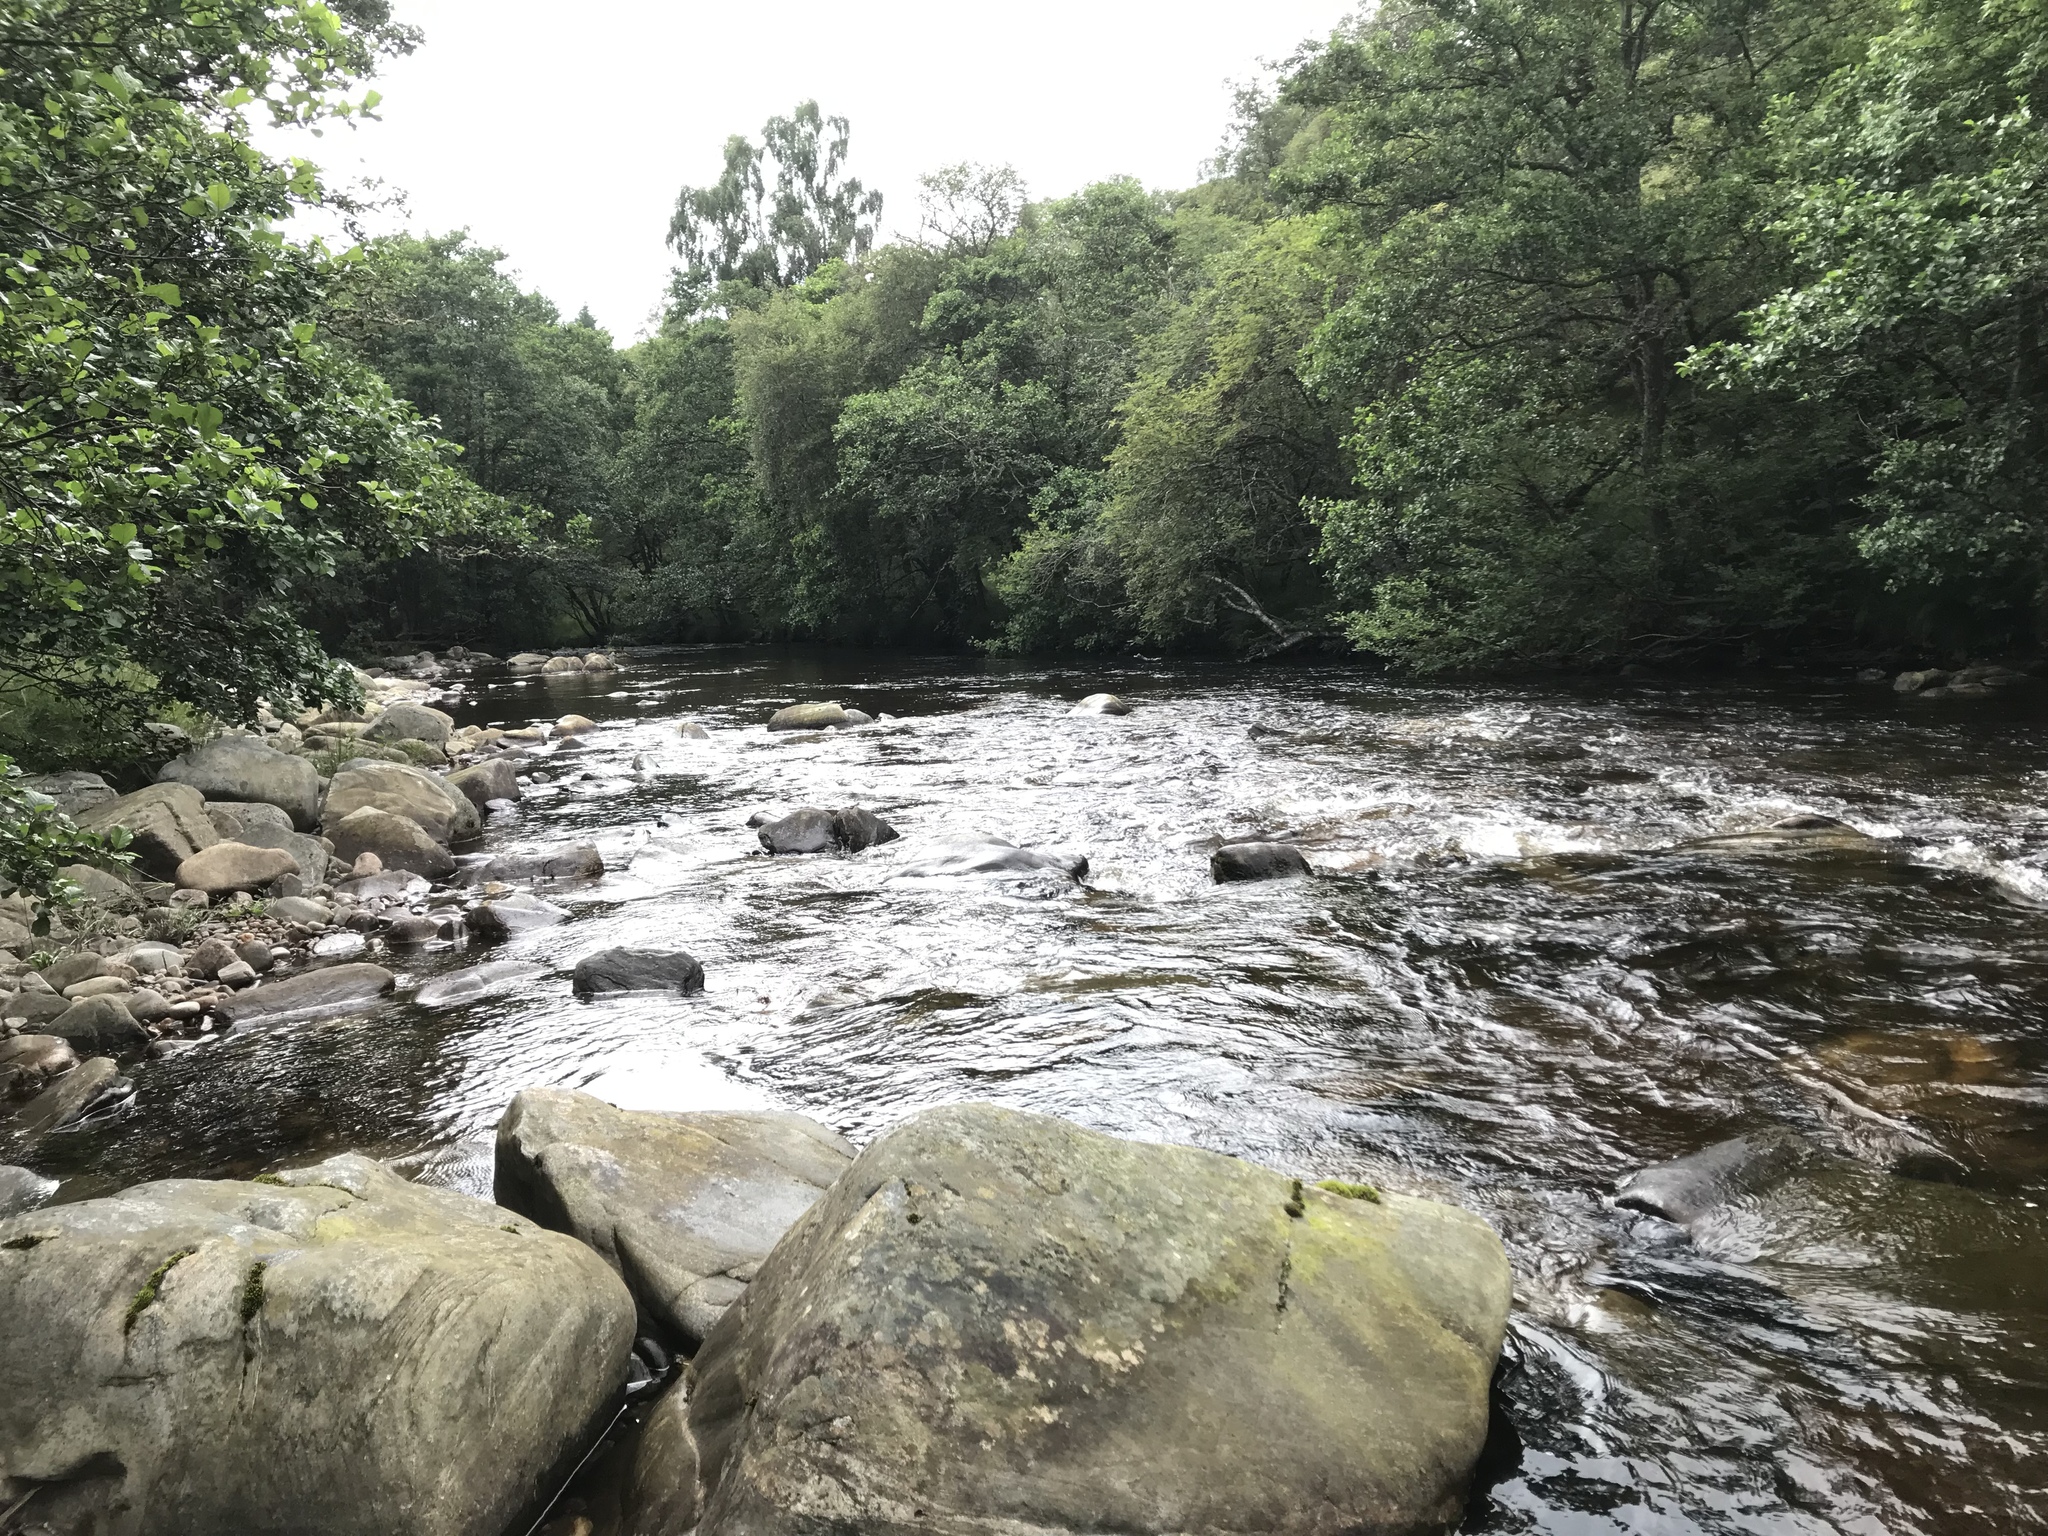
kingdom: Plantae
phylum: Bryophyta
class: Bryopsida
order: Grimmiales
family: Grimmiaceae
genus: Codriophorus
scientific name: Codriophorus acicularis
